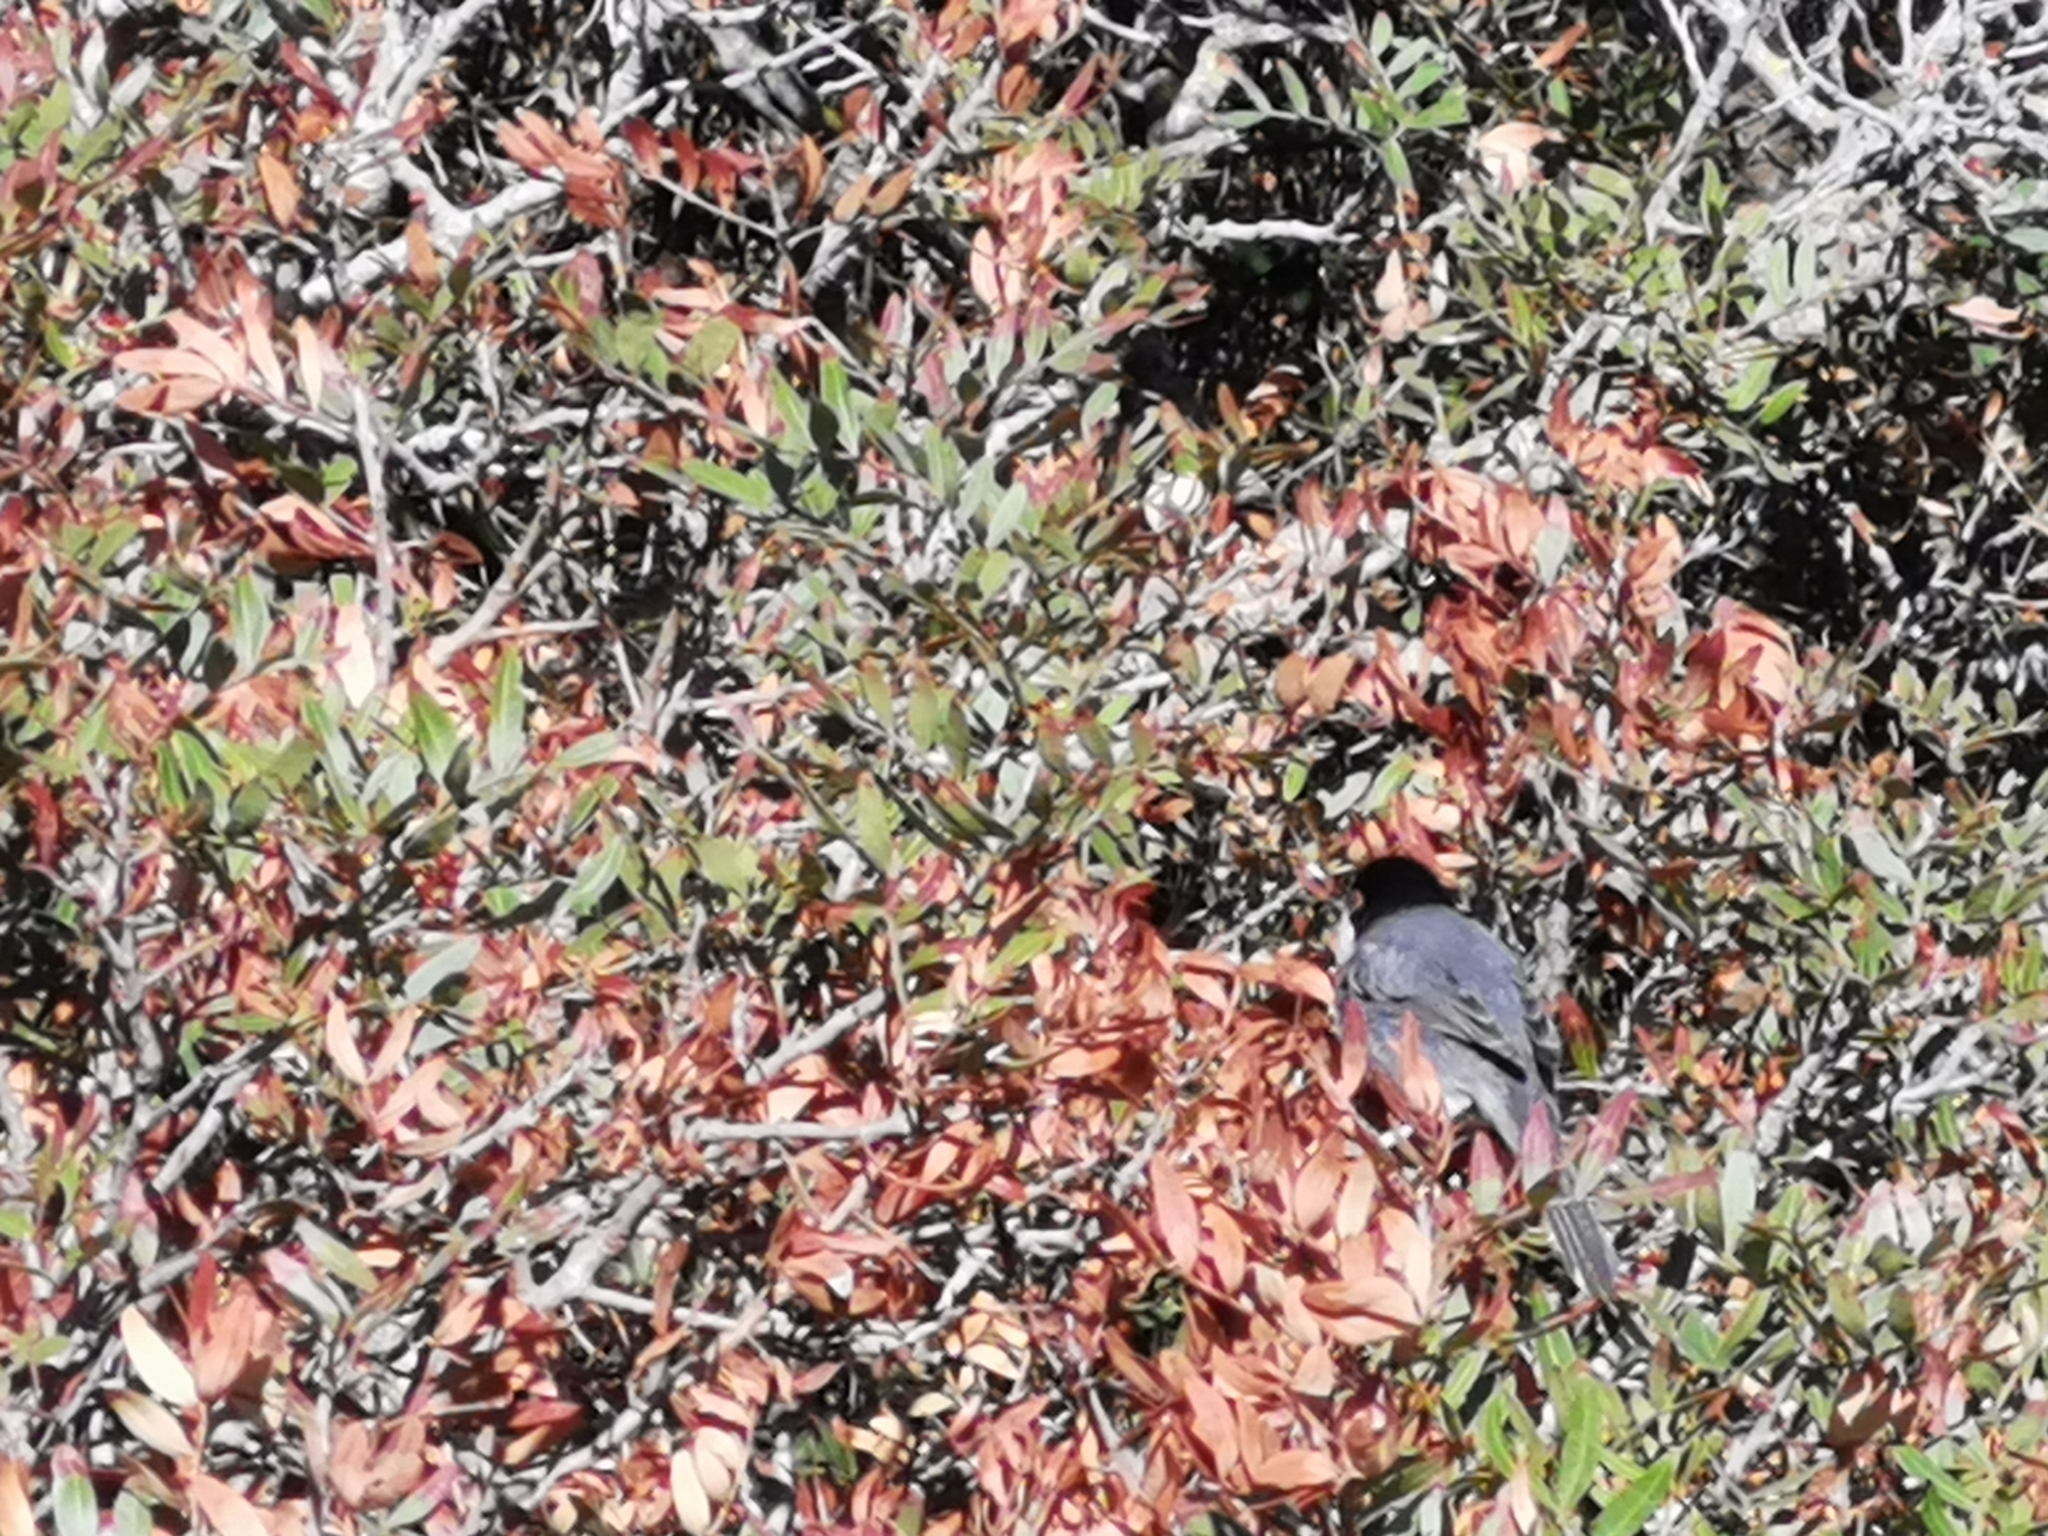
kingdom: Animalia
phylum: Chordata
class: Aves
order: Passeriformes
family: Sylviidae
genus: Curruca
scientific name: Curruca melanocephala
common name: Sardinian warbler
